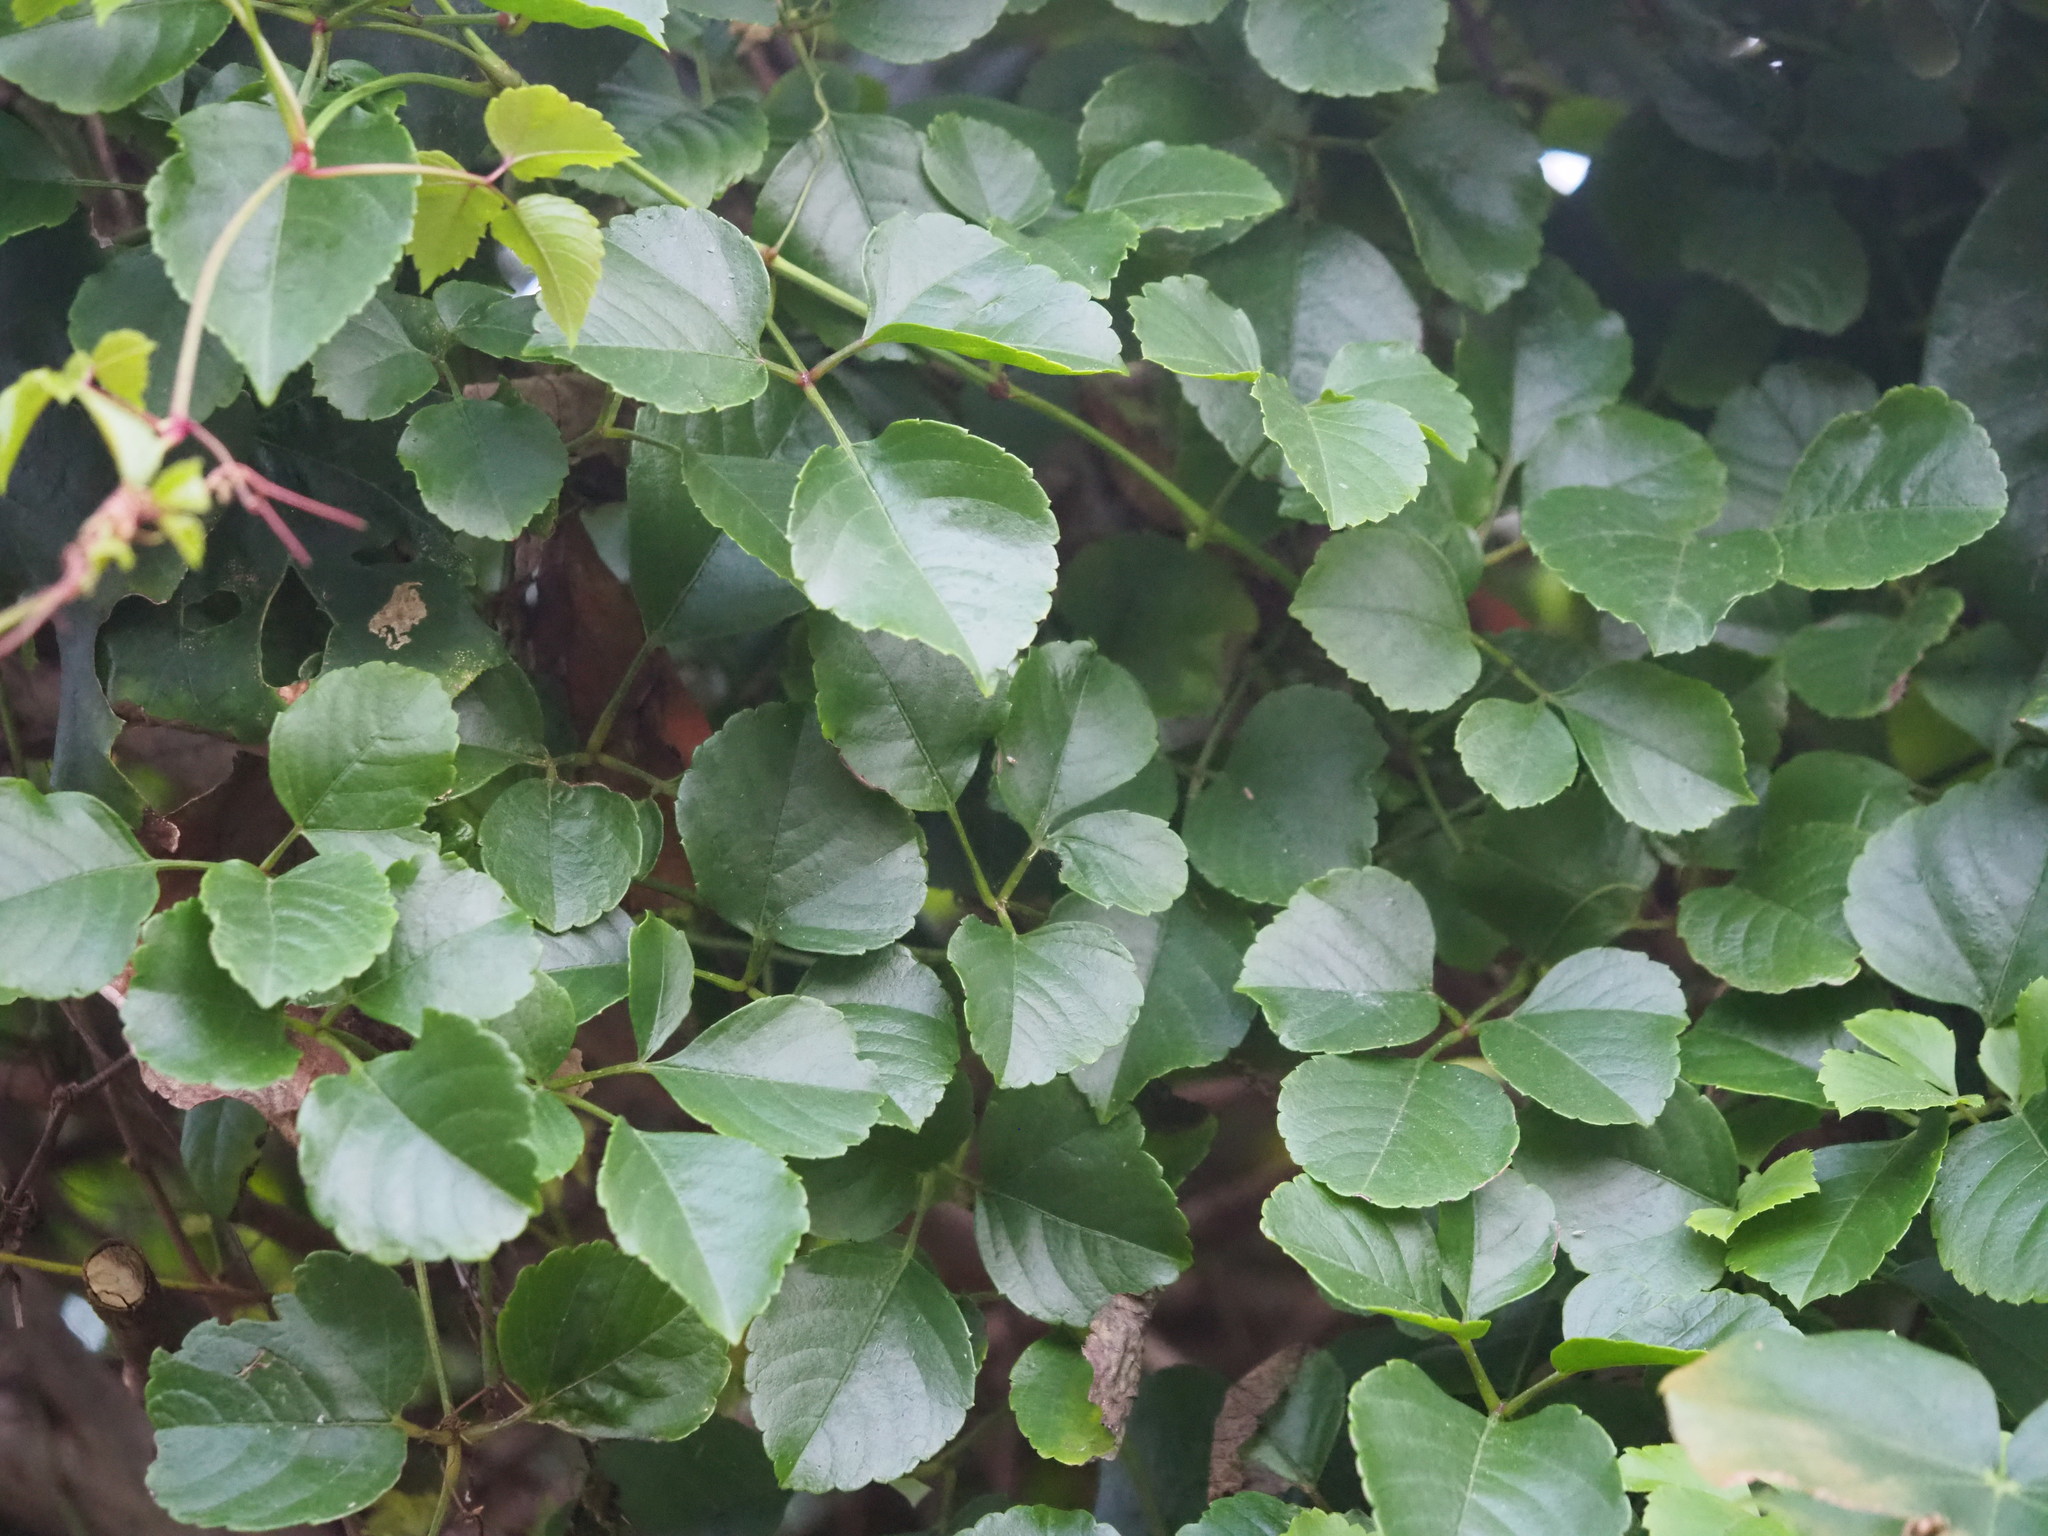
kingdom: Plantae
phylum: Tracheophyta
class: Magnoliopsida
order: Vitales
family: Vitaceae
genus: Causonis
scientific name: Causonis maritima
